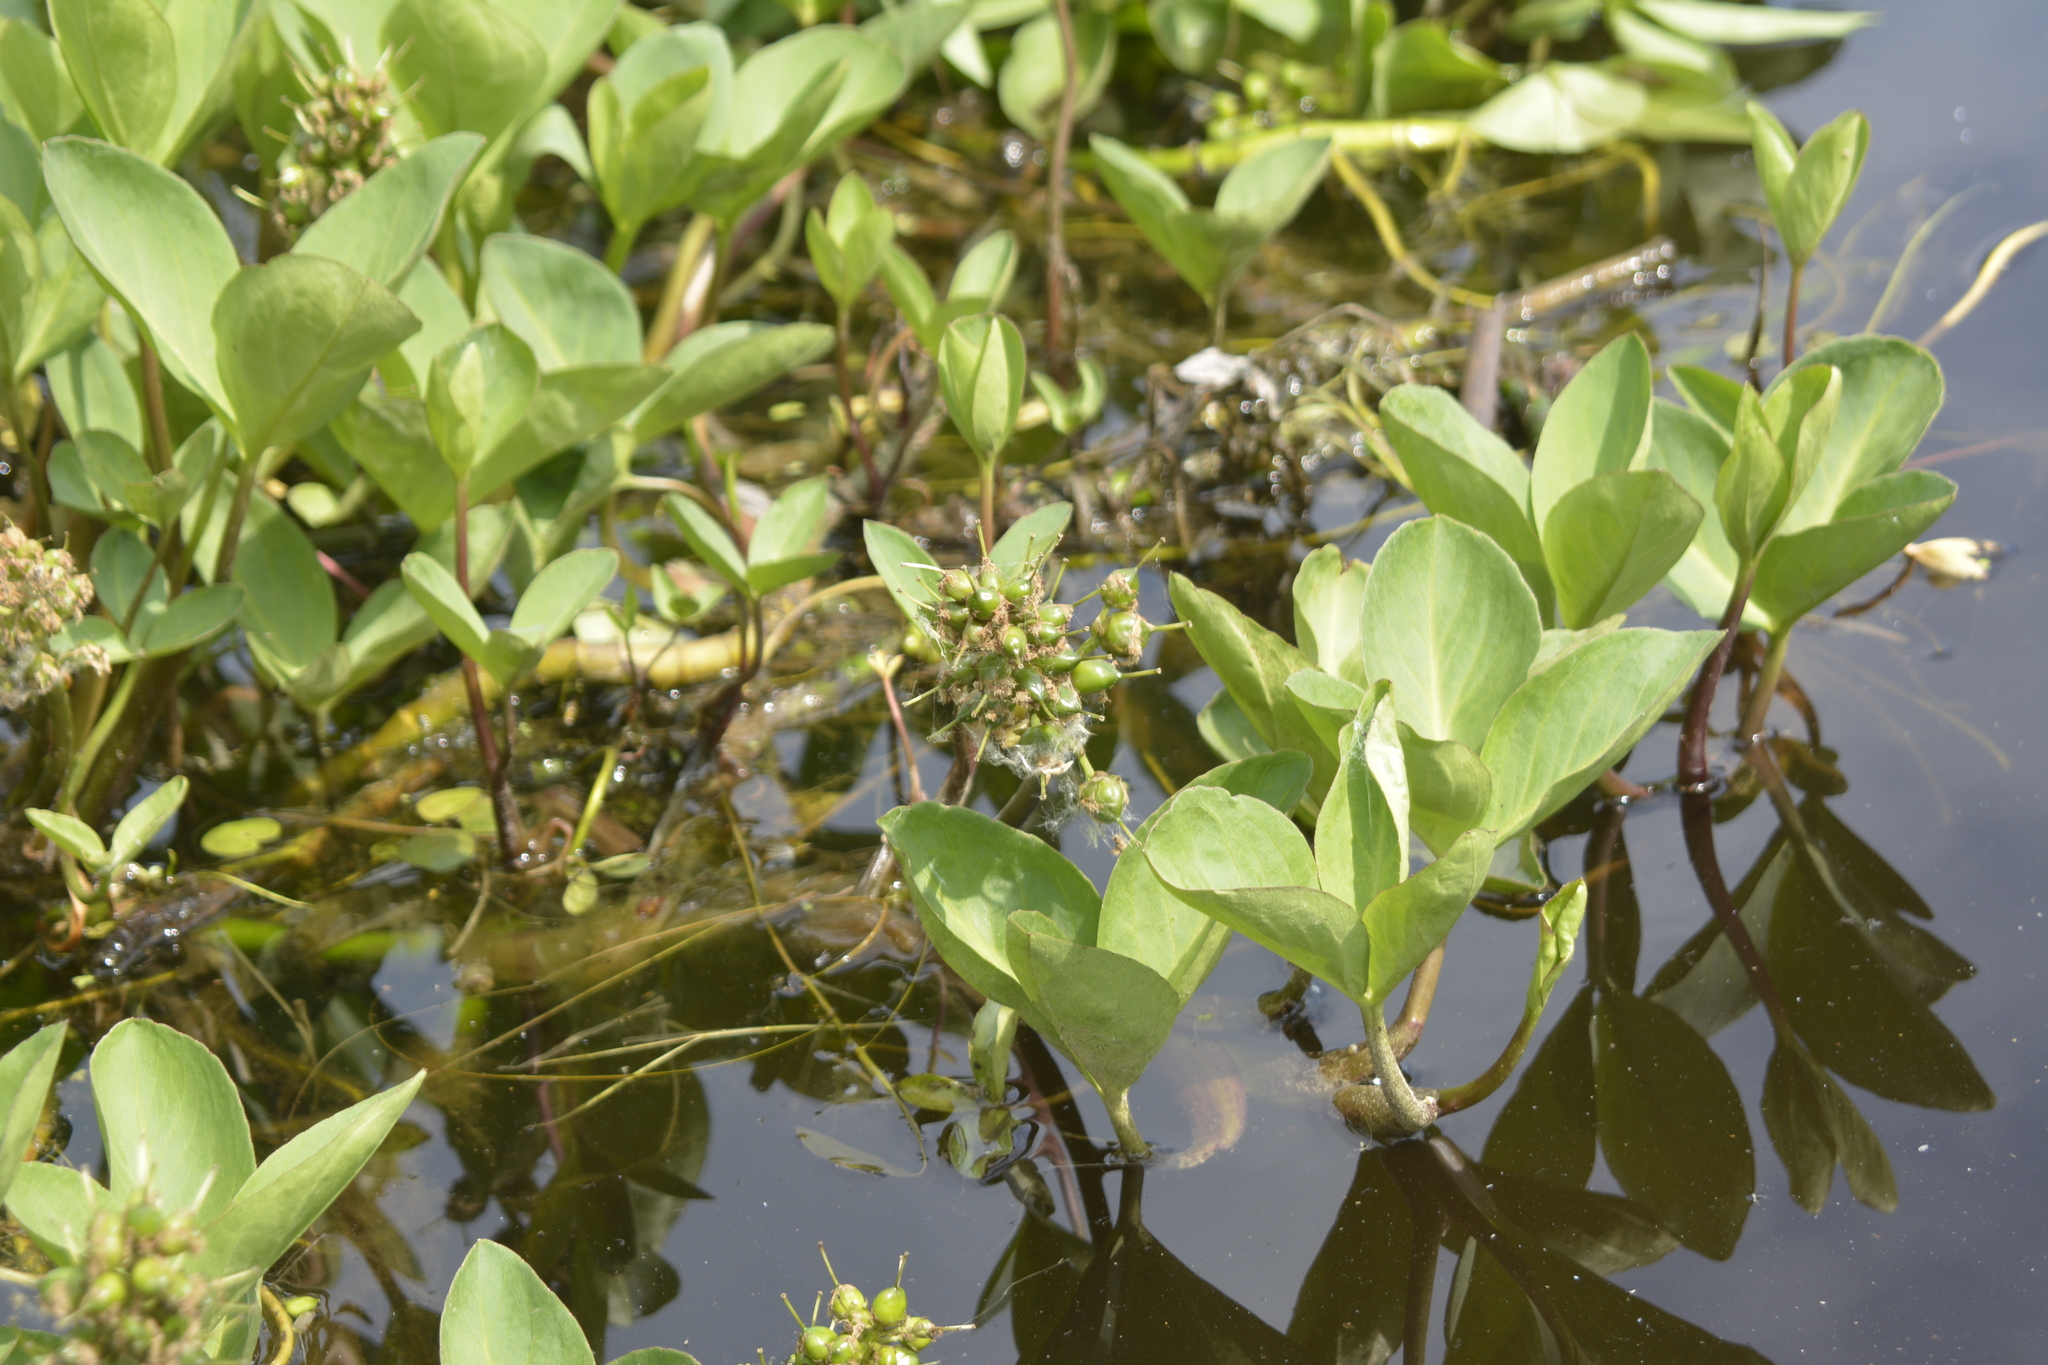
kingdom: Plantae
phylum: Tracheophyta
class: Magnoliopsida
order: Asterales
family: Menyanthaceae
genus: Menyanthes
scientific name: Menyanthes trifoliata
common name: Bogbean
